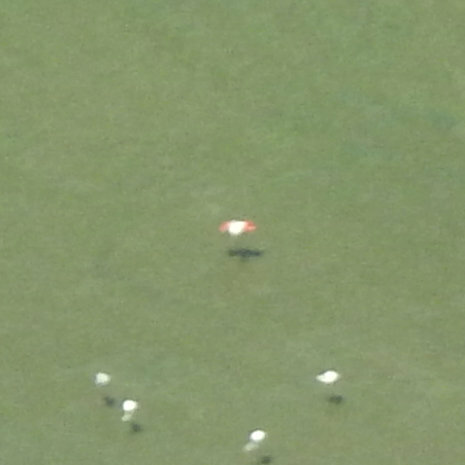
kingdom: Animalia
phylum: Chordata
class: Aves
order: Phoenicopteriformes
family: Phoenicopteridae
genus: Phoenicopterus
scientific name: Phoenicopterus roseus
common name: Greater flamingo
